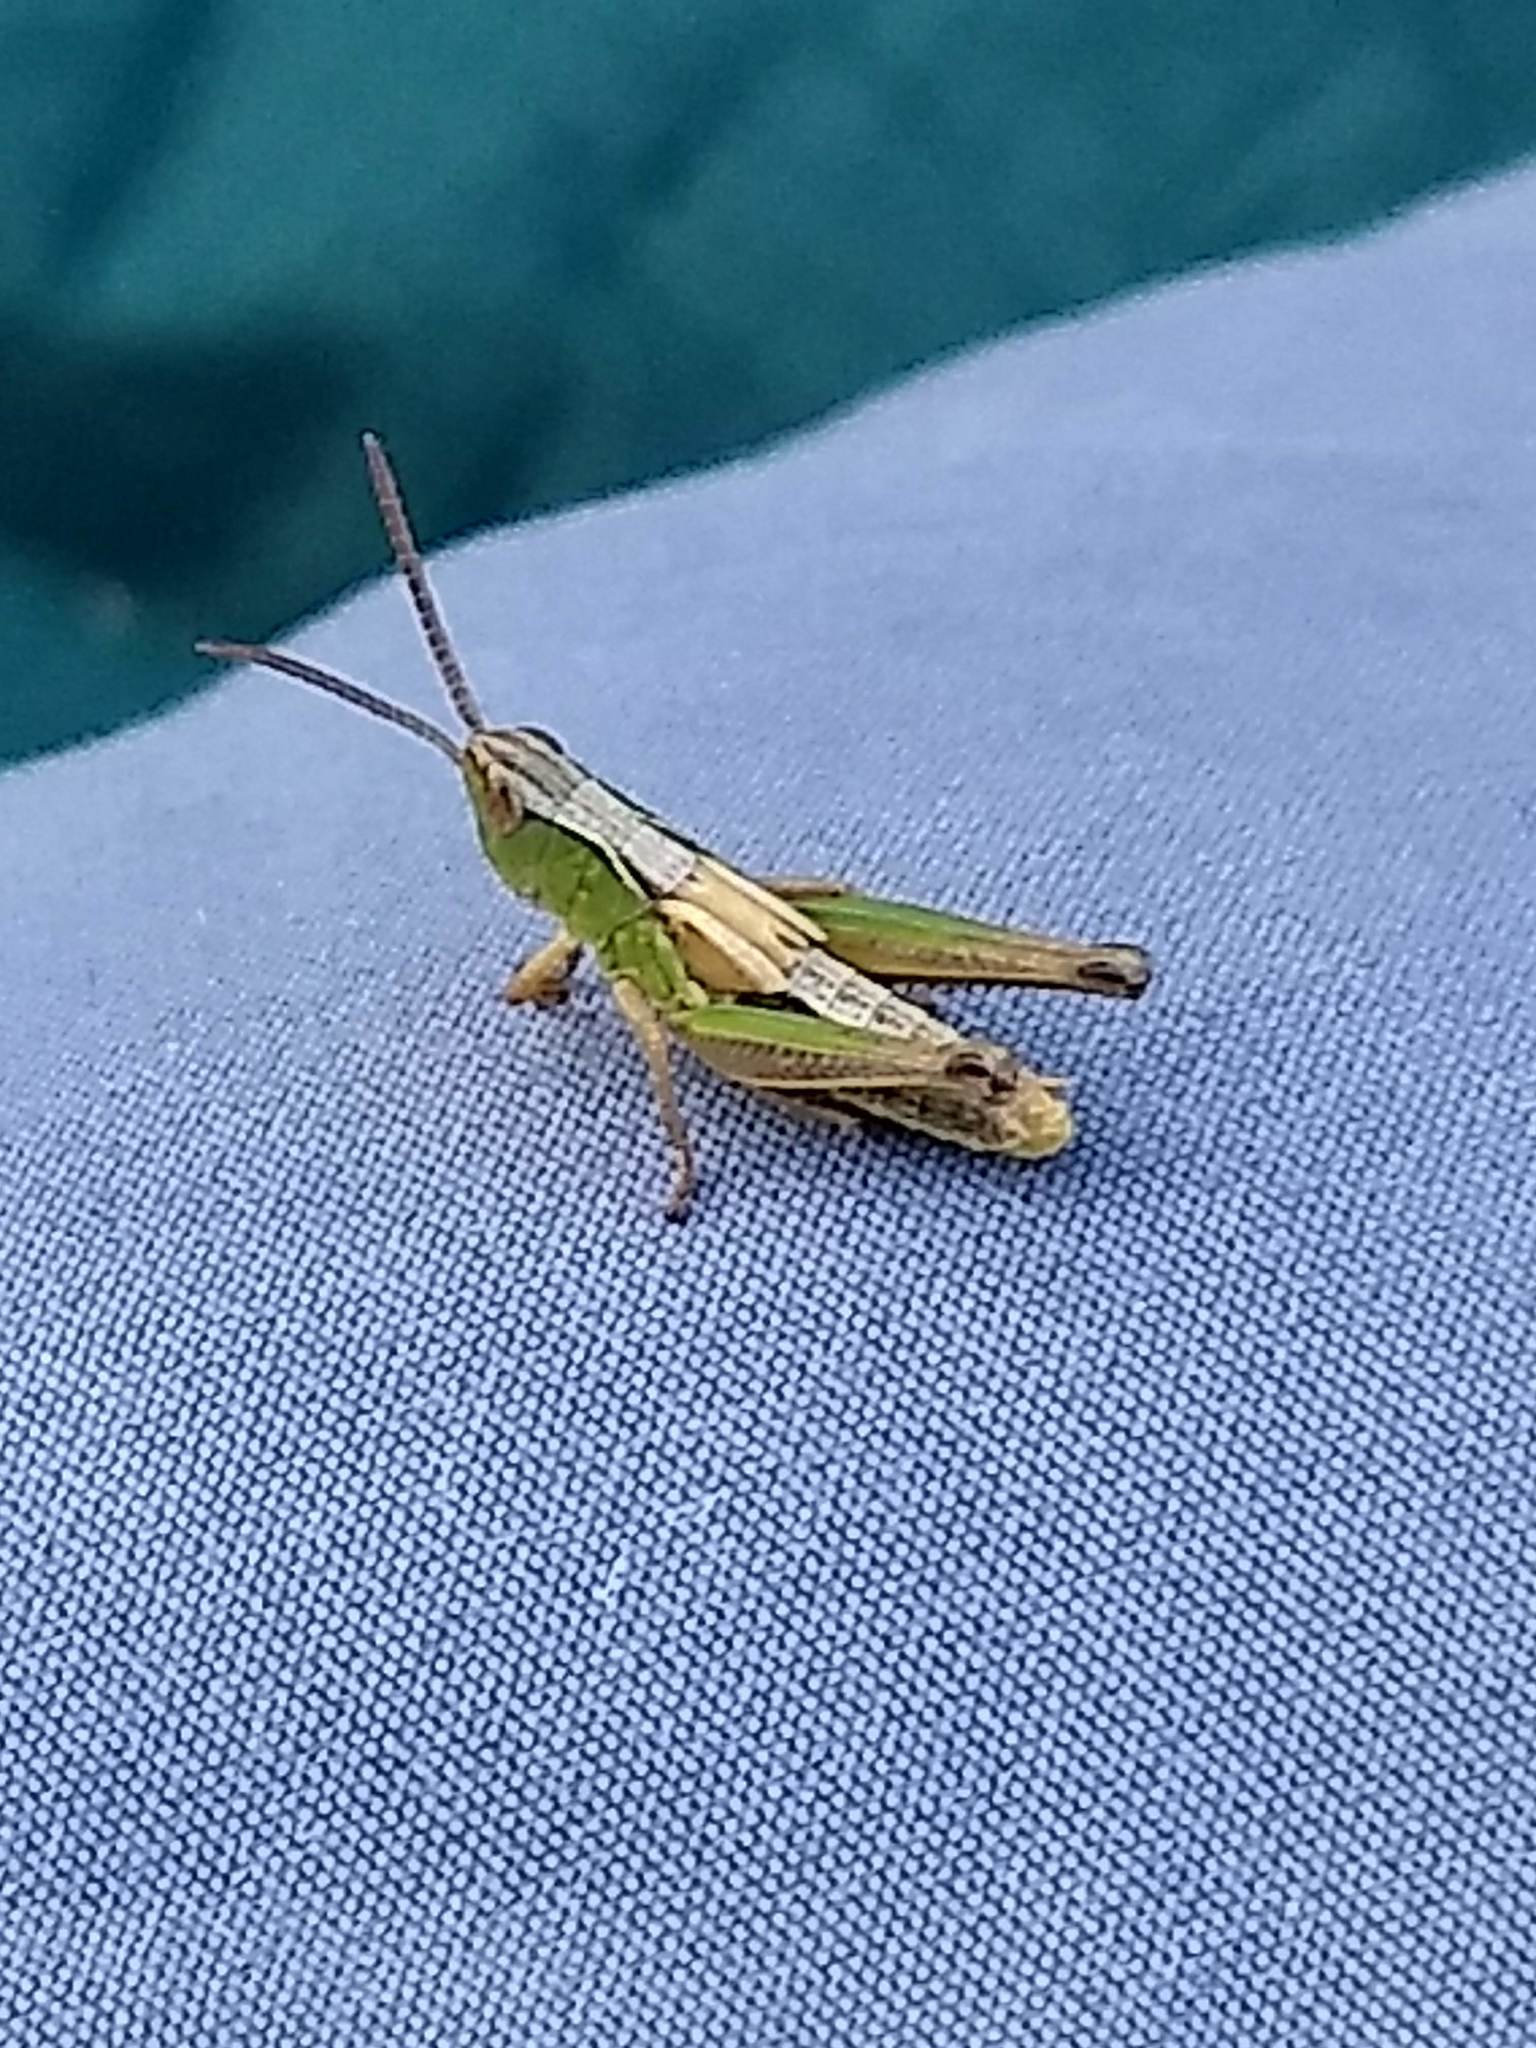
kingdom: Animalia
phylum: Arthropoda
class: Insecta
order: Orthoptera
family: Acrididae
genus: Pseudochorthippus
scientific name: Pseudochorthippus curtipennis
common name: Marsh meadow grasshopper
